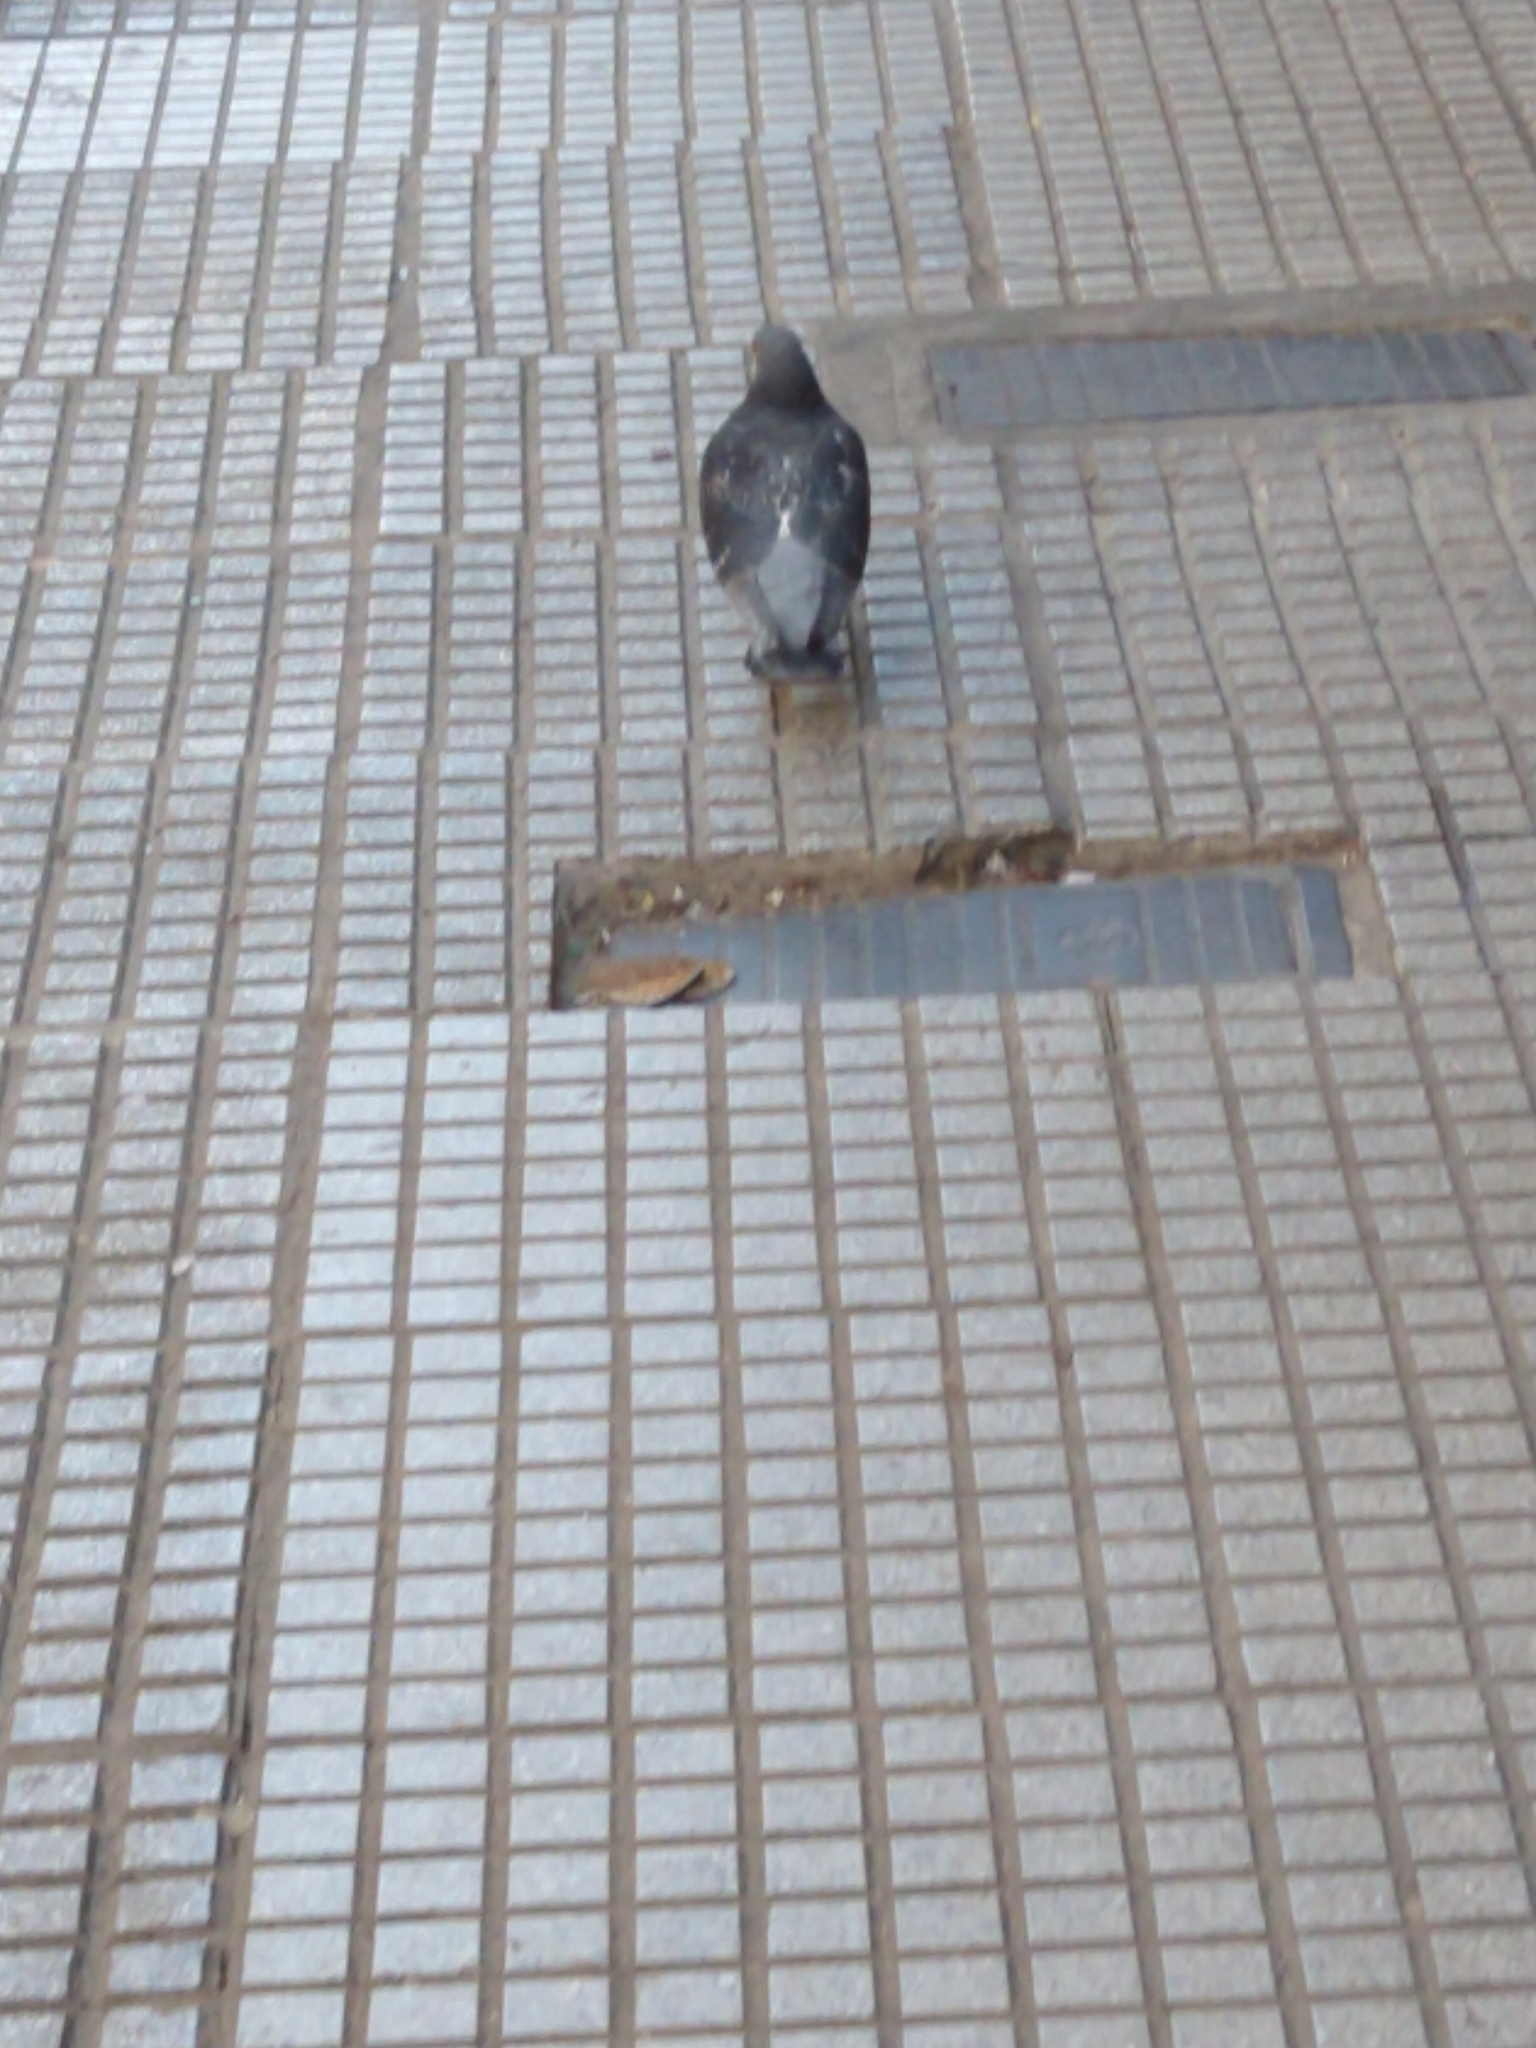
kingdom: Animalia
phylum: Chordata
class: Aves
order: Columbiformes
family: Columbidae
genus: Columba
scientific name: Columba livia
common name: Rock pigeon
